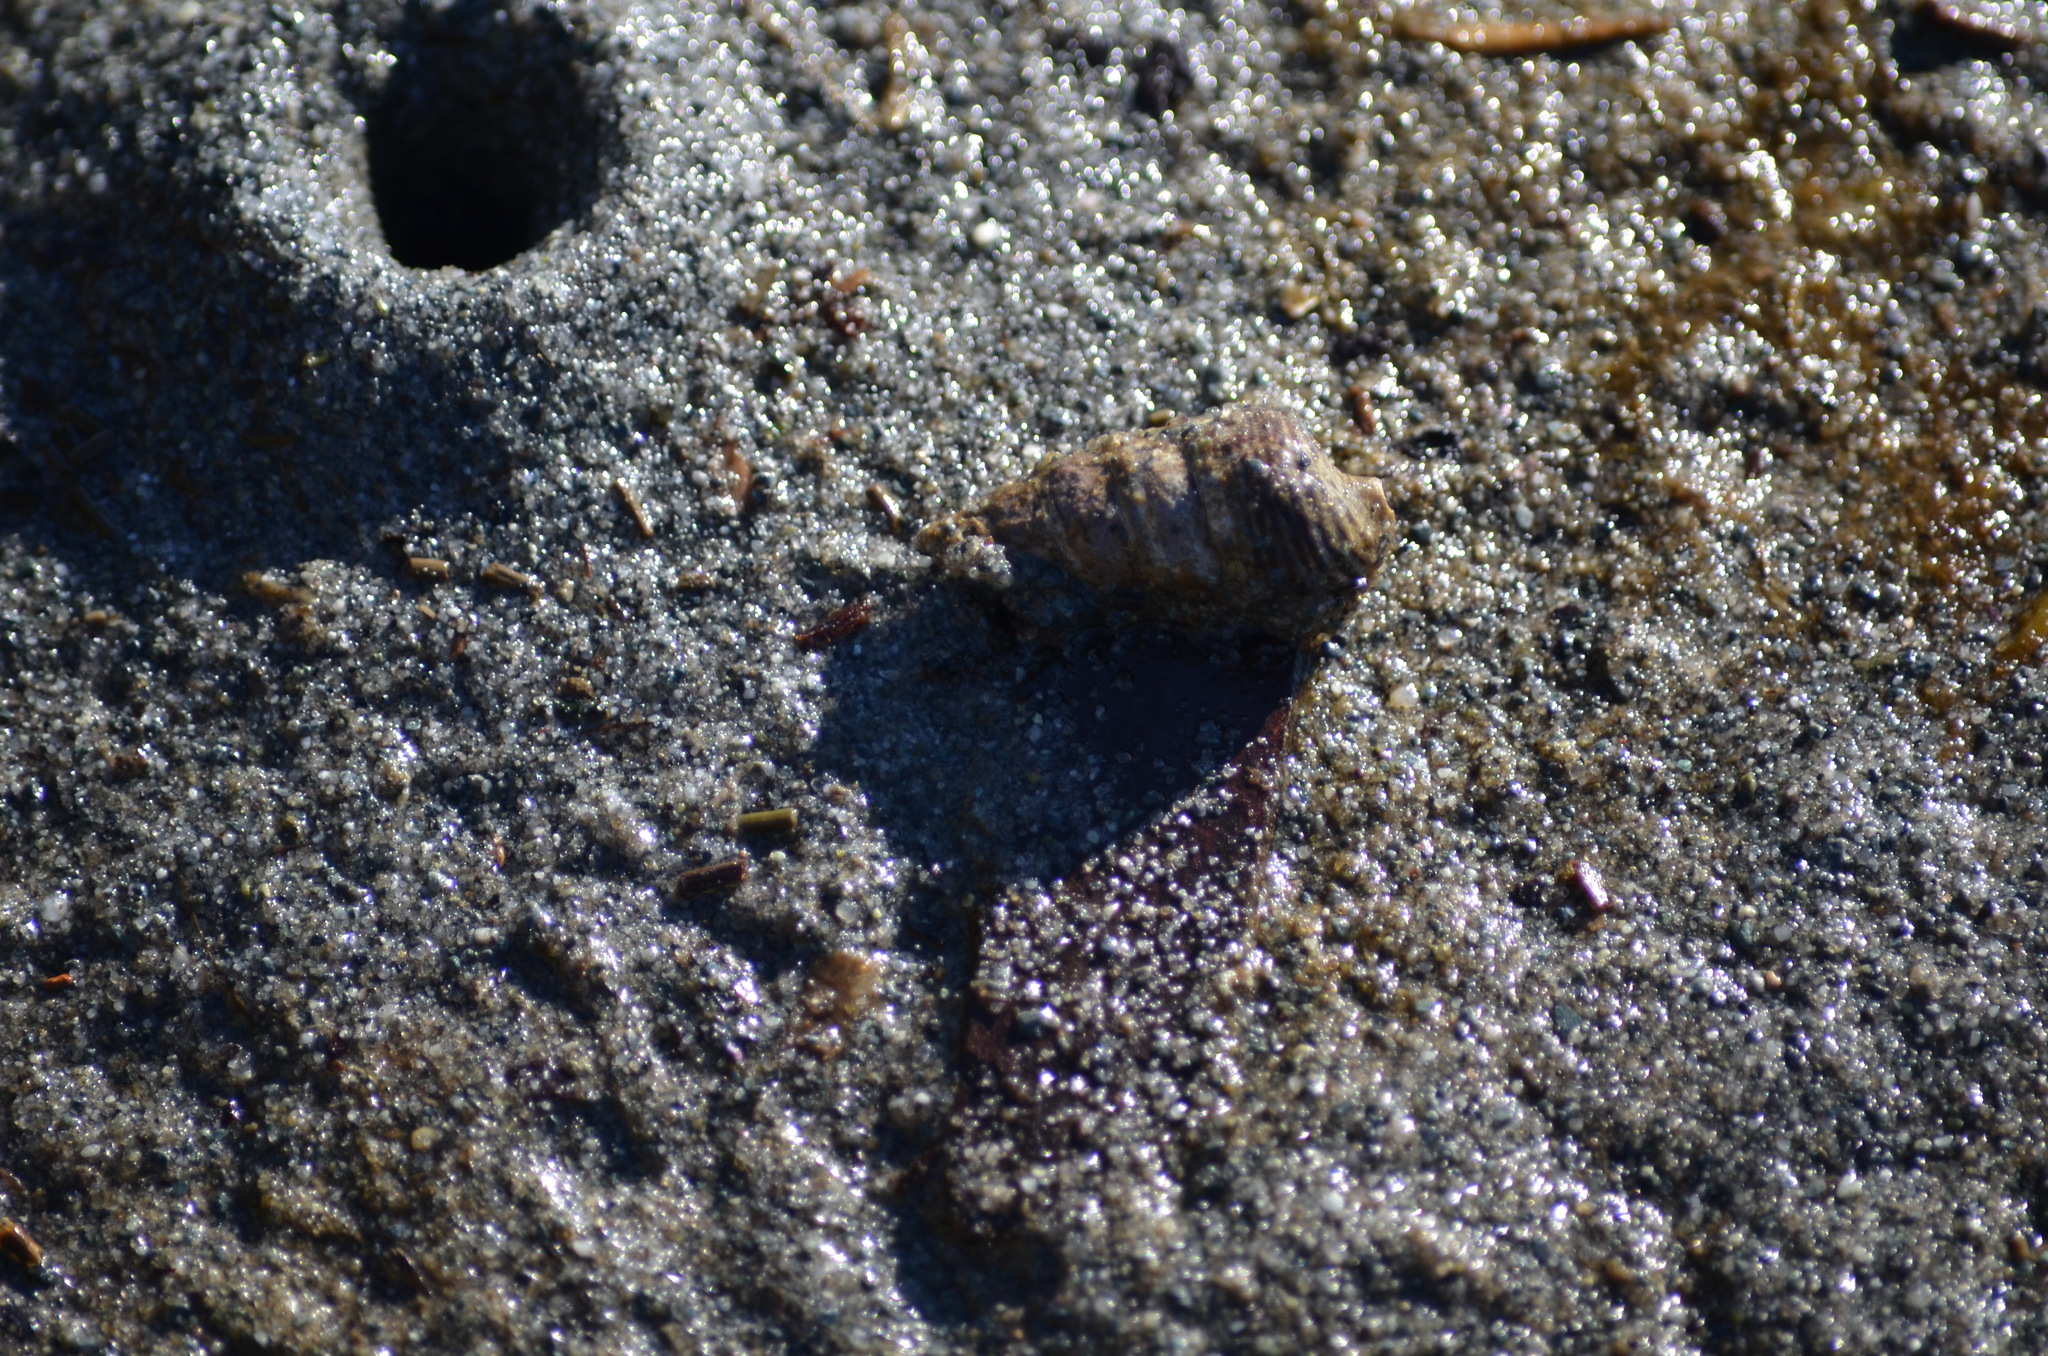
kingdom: Animalia
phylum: Mollusca
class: Gastropoda
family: Batillariidae
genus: Batillaria
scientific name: Batillaria attramentaria
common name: Japanese false cerith
